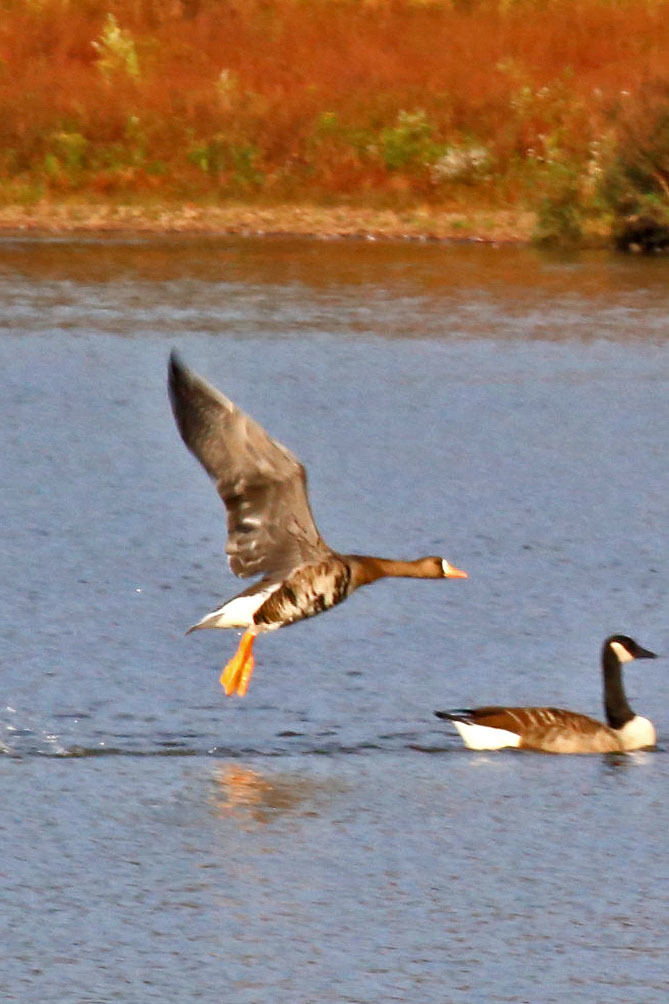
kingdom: Animalia
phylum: Chordata
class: Aves
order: Anseriformes
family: Anatidae
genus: Anser
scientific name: Anser albifrons
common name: Greater white-fronted goose
